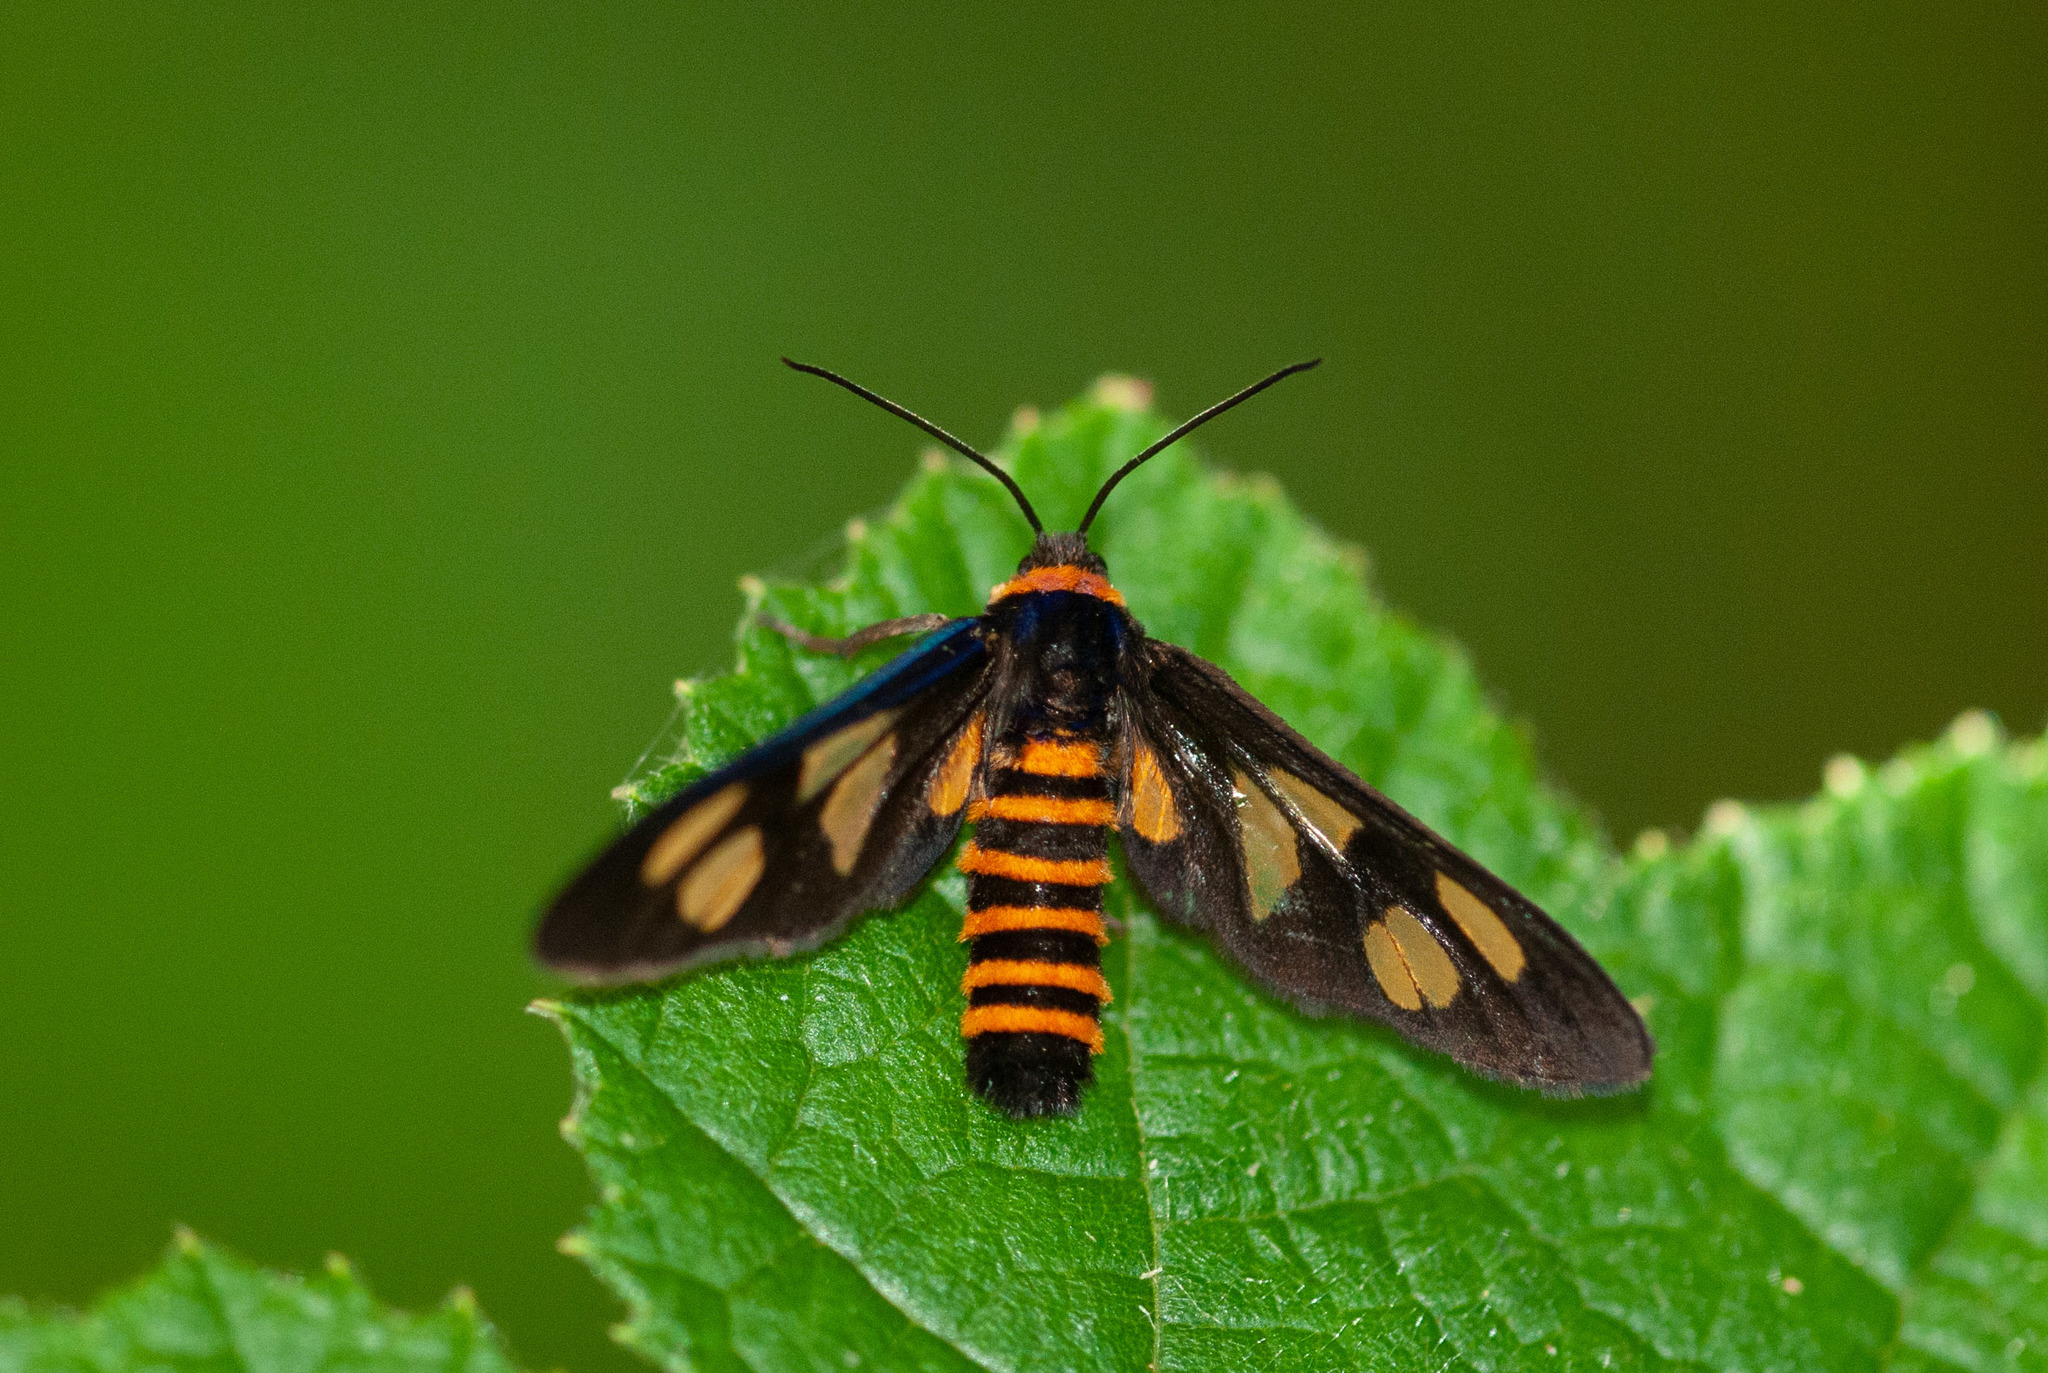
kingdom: Animalia
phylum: Arthropoda
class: Insecta
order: Lepidoptera
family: Erebidae
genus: Eressa
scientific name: Eressa angustipenna
